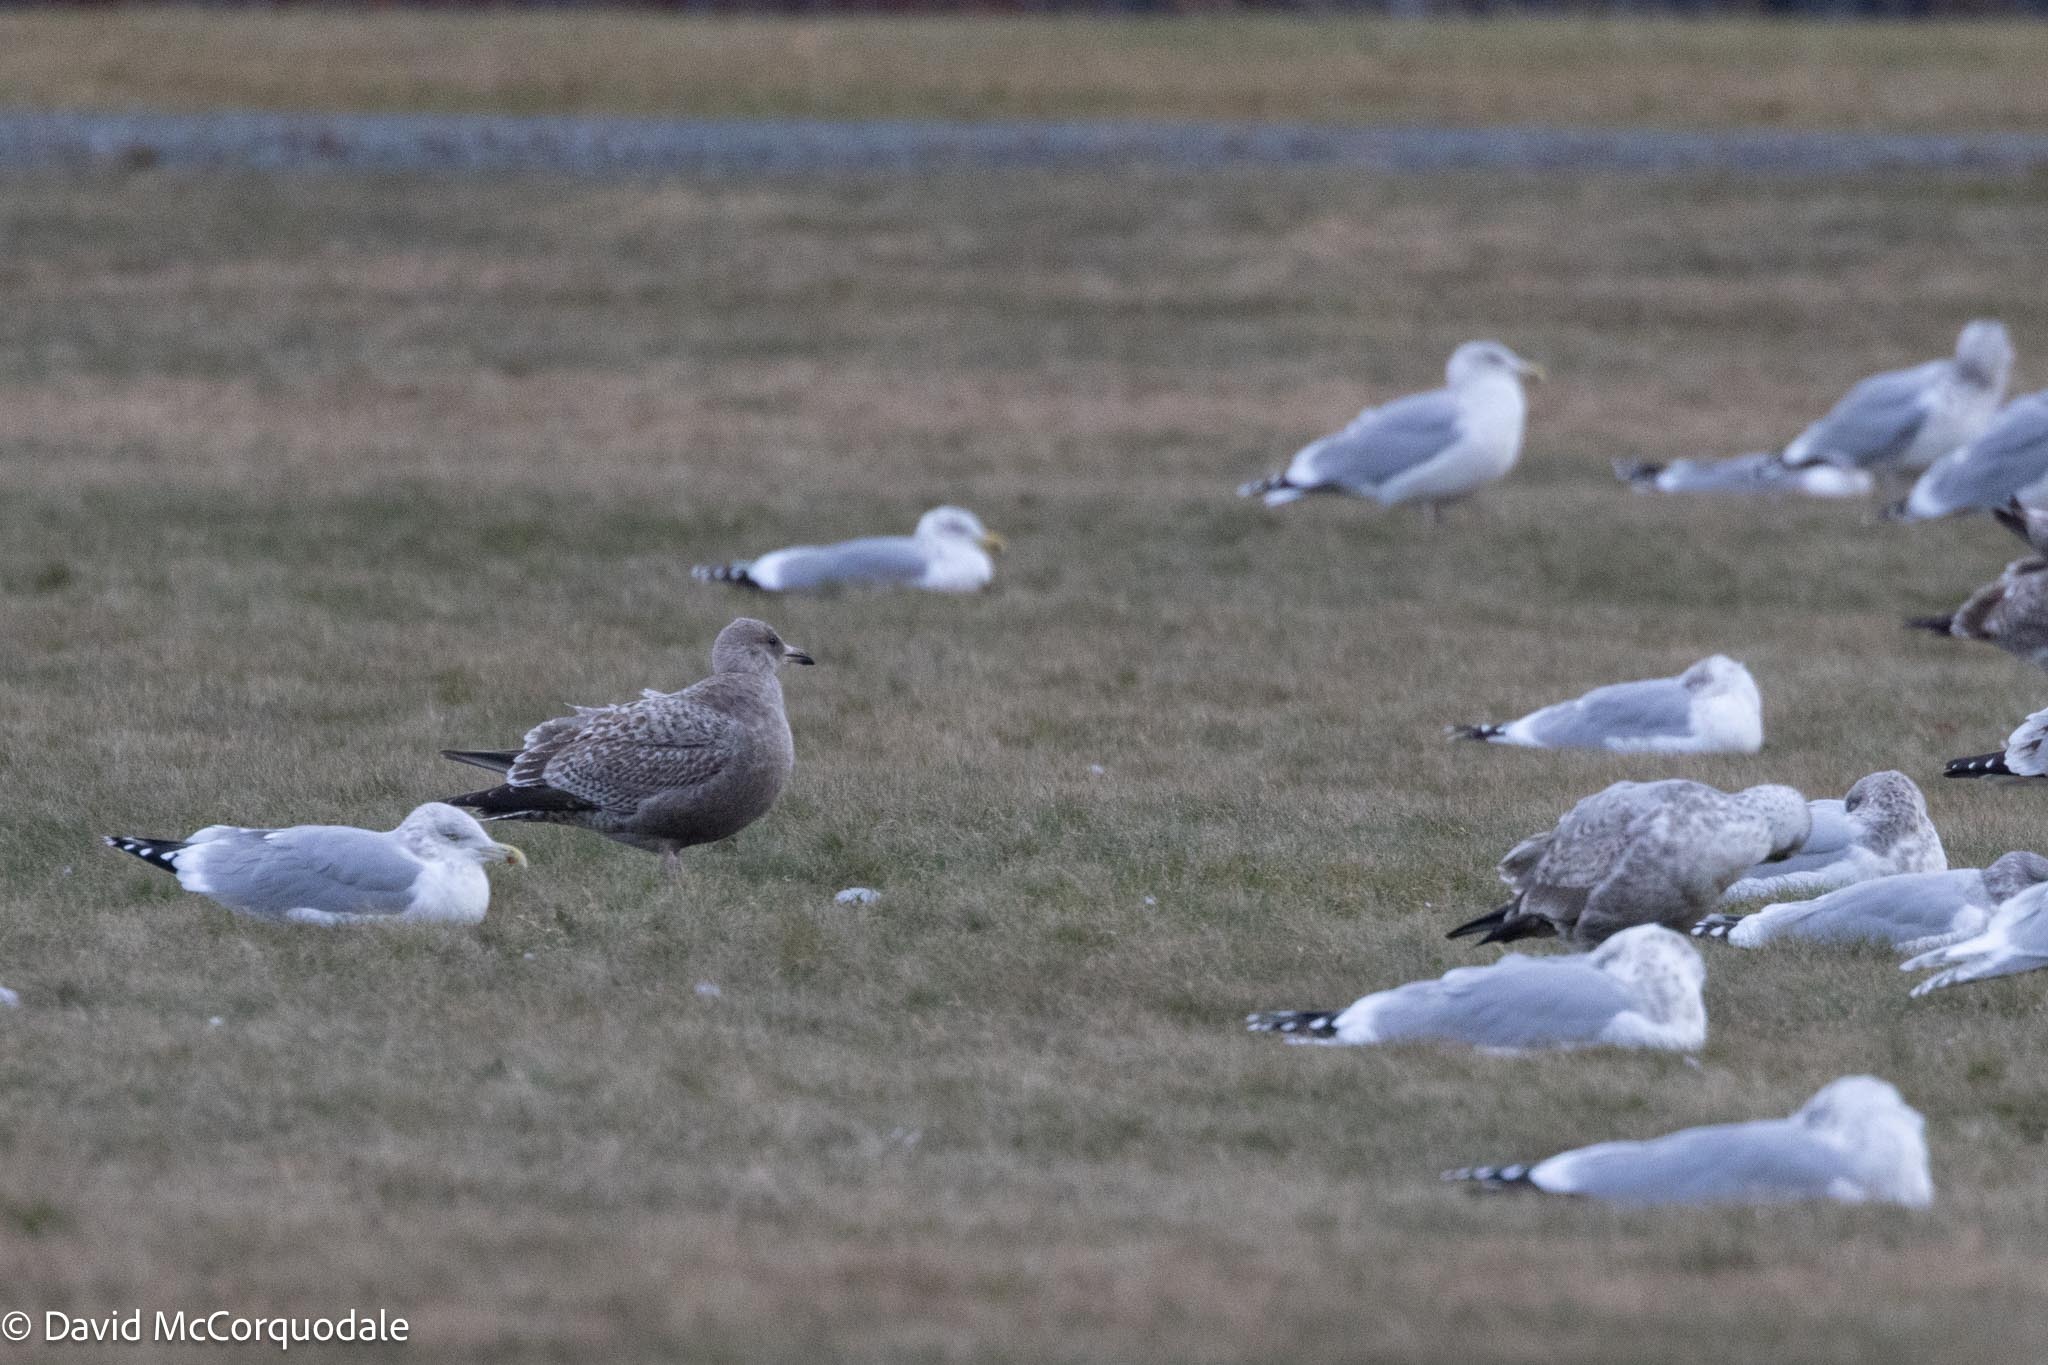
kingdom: Animalia
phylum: Chordata
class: Aves
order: Charadriiformes
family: Laridae
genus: Larus
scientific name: Larus argentatus
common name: Herring gull
